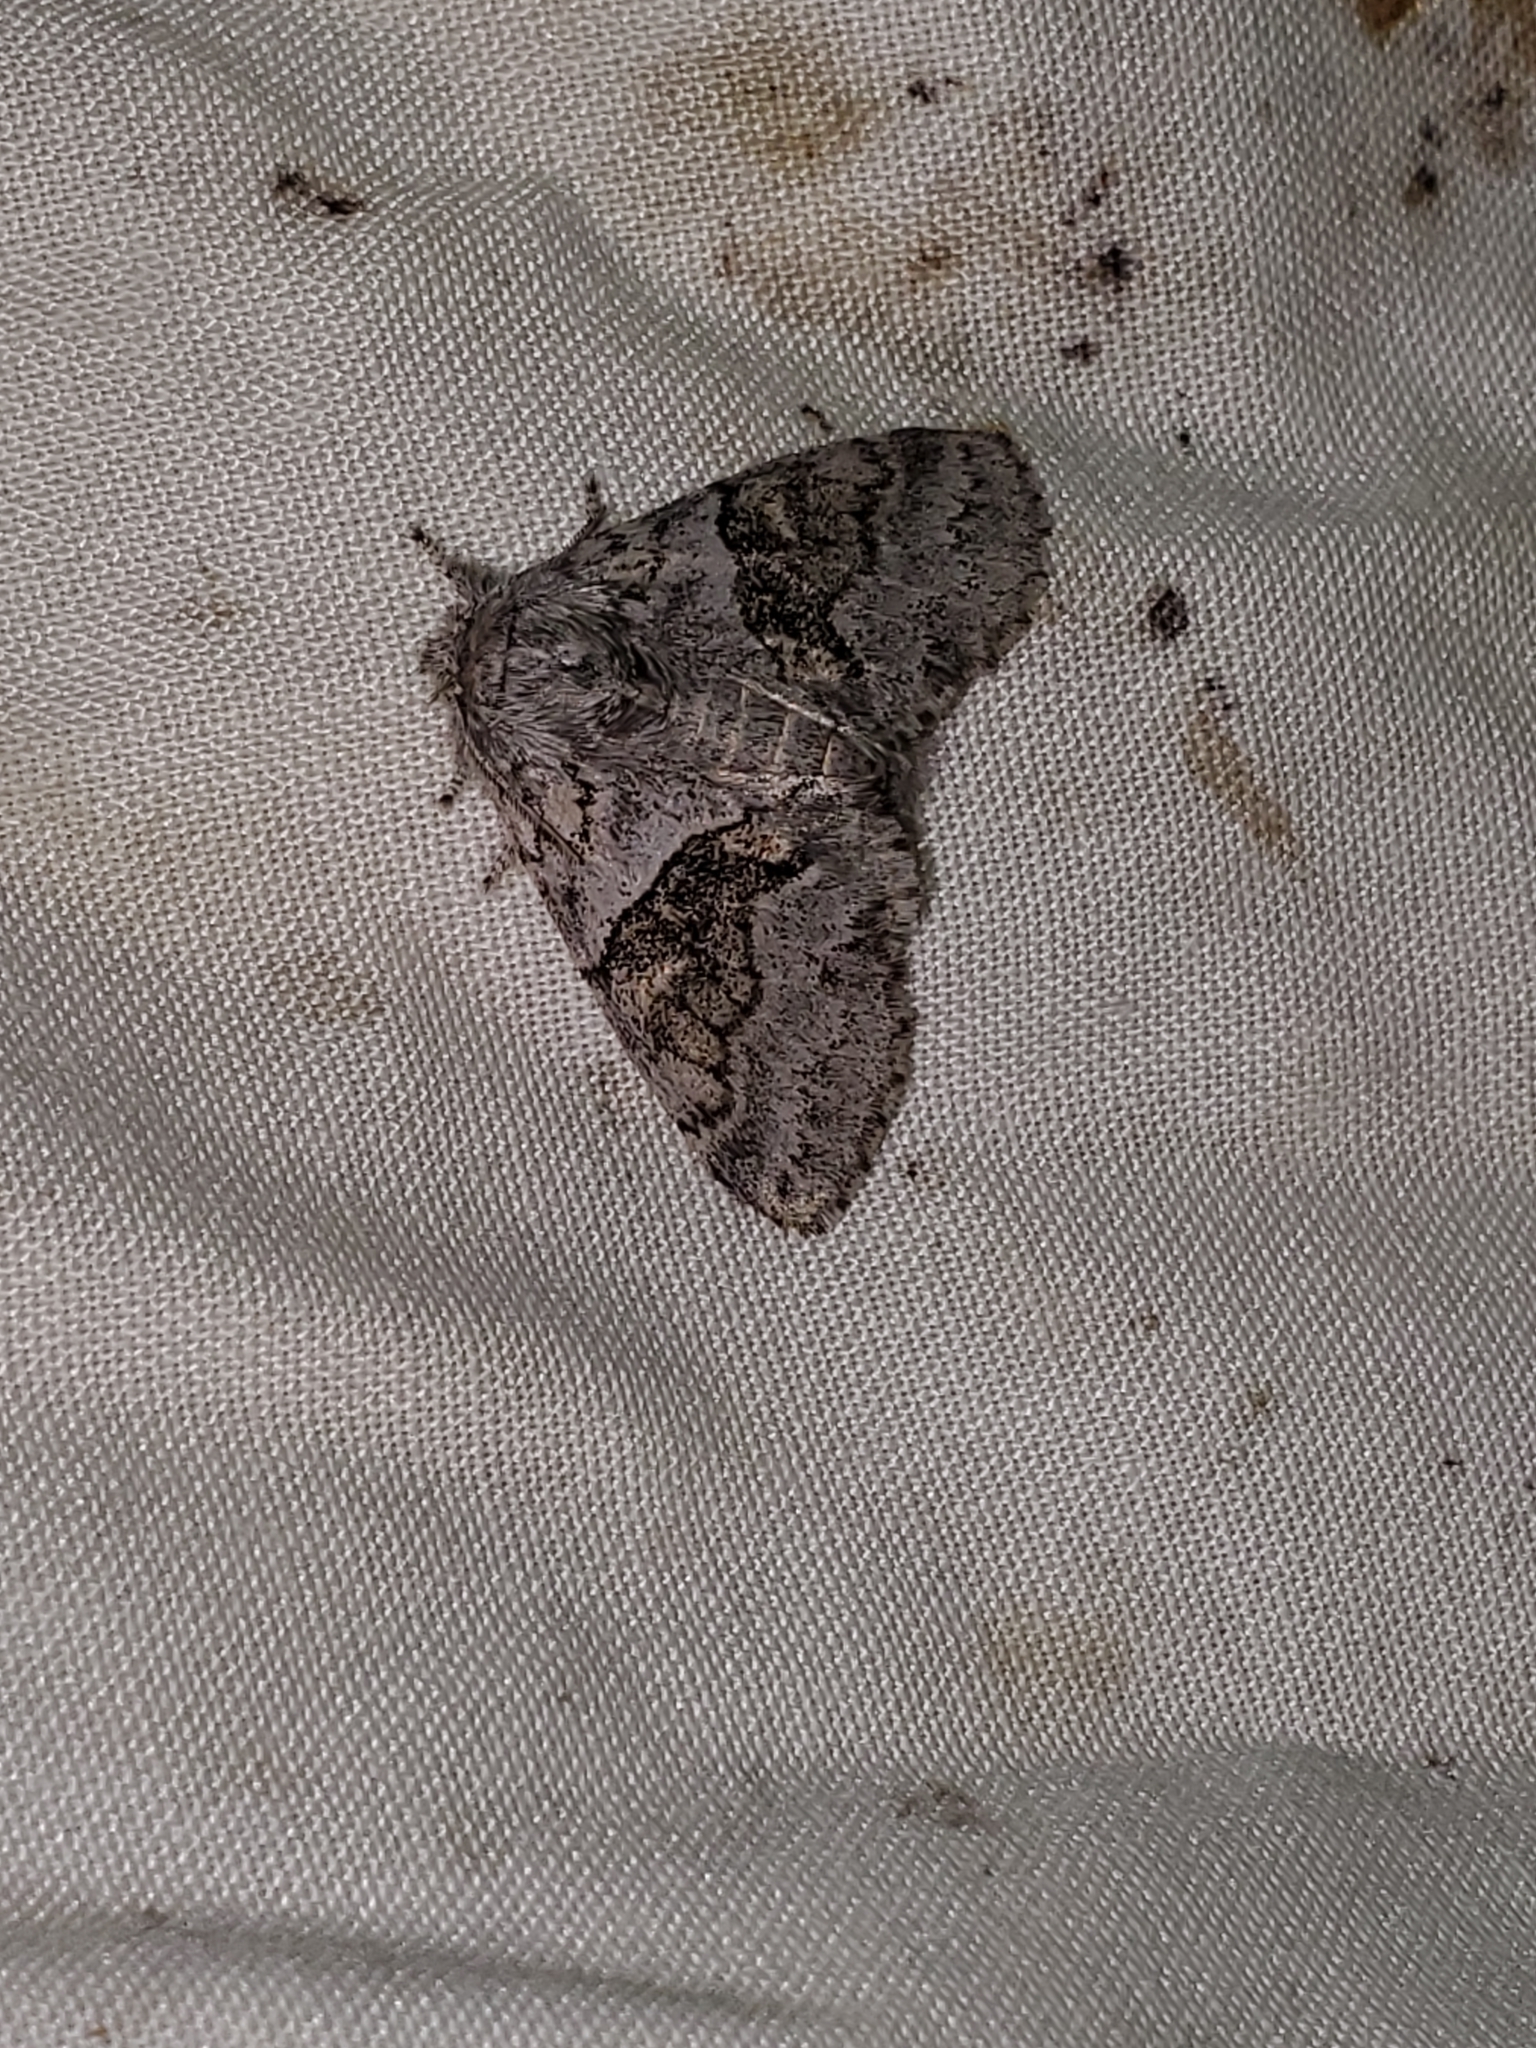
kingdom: Animalia
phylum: Arthropoda
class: Insecta
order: Lepidoptera
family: Notodontidae
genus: Gluphisia
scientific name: Gluphisia septentrionis
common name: Common gluphisia
